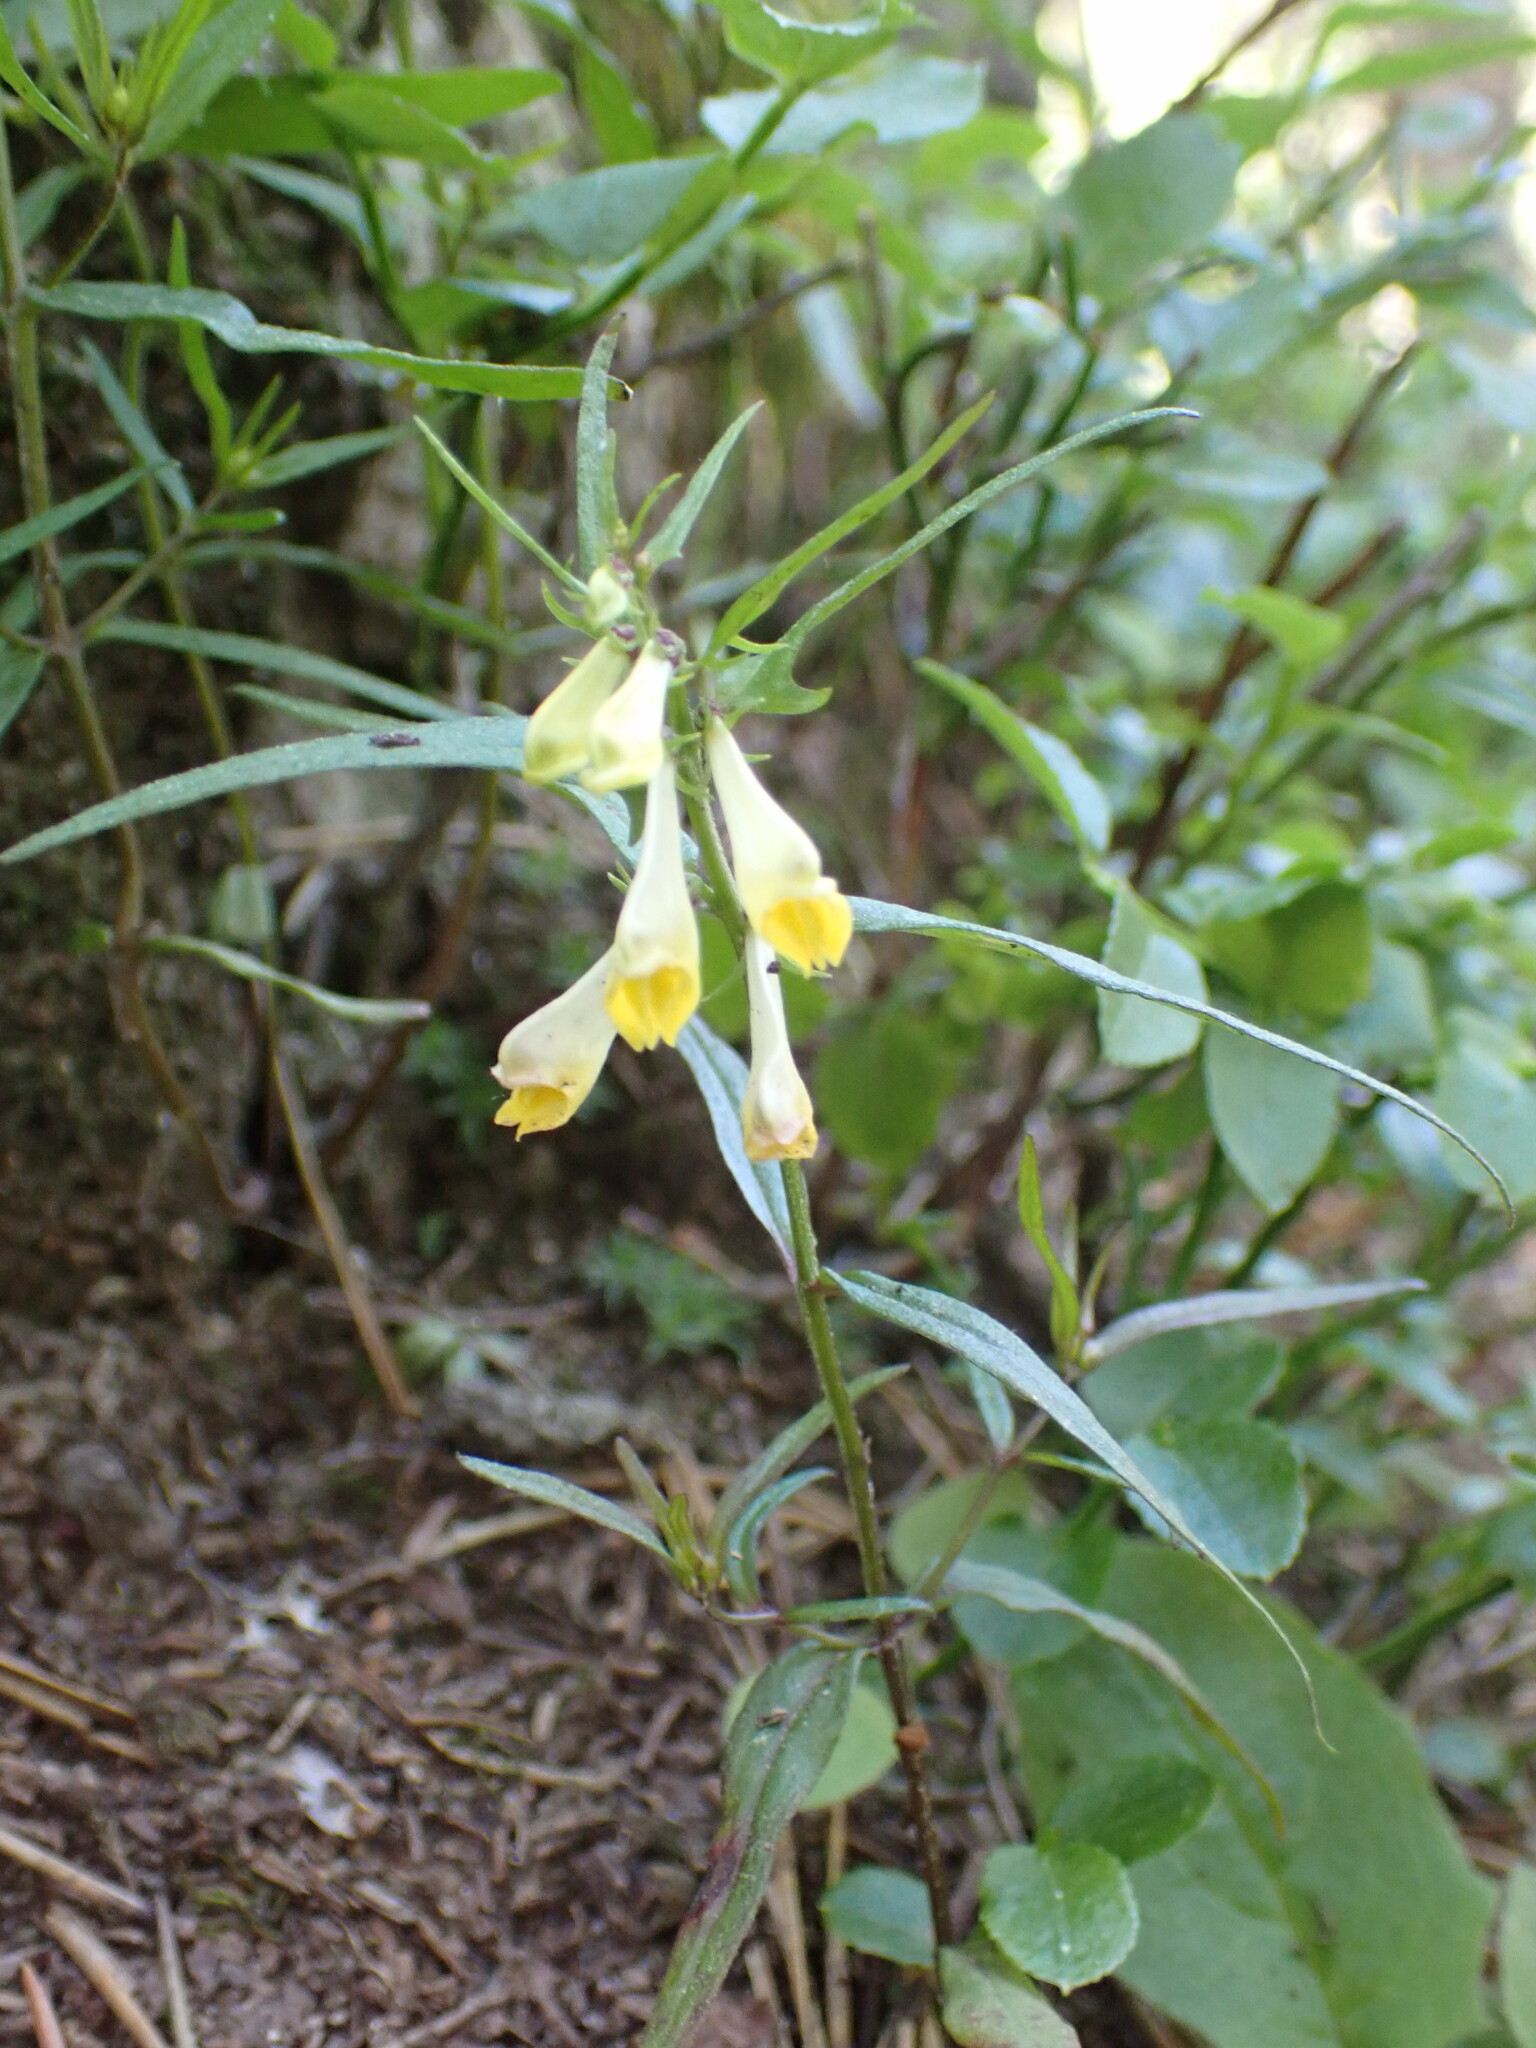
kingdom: Plantae
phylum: Tracheophyta
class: Magnoliopsida
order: Lamiales
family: Orobanchaceae
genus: Melampyrum
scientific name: Melampyrum pratense
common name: Common cow-wheat
